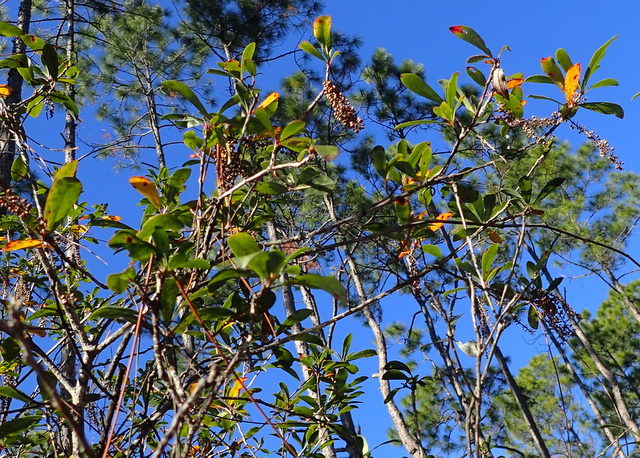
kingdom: Plantae
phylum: Tracheophyta
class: Magnoliopsida
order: Ericales
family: Cyrillaceae
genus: Cyrilla
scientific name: Cyrilla racemiflora
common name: Black titi
